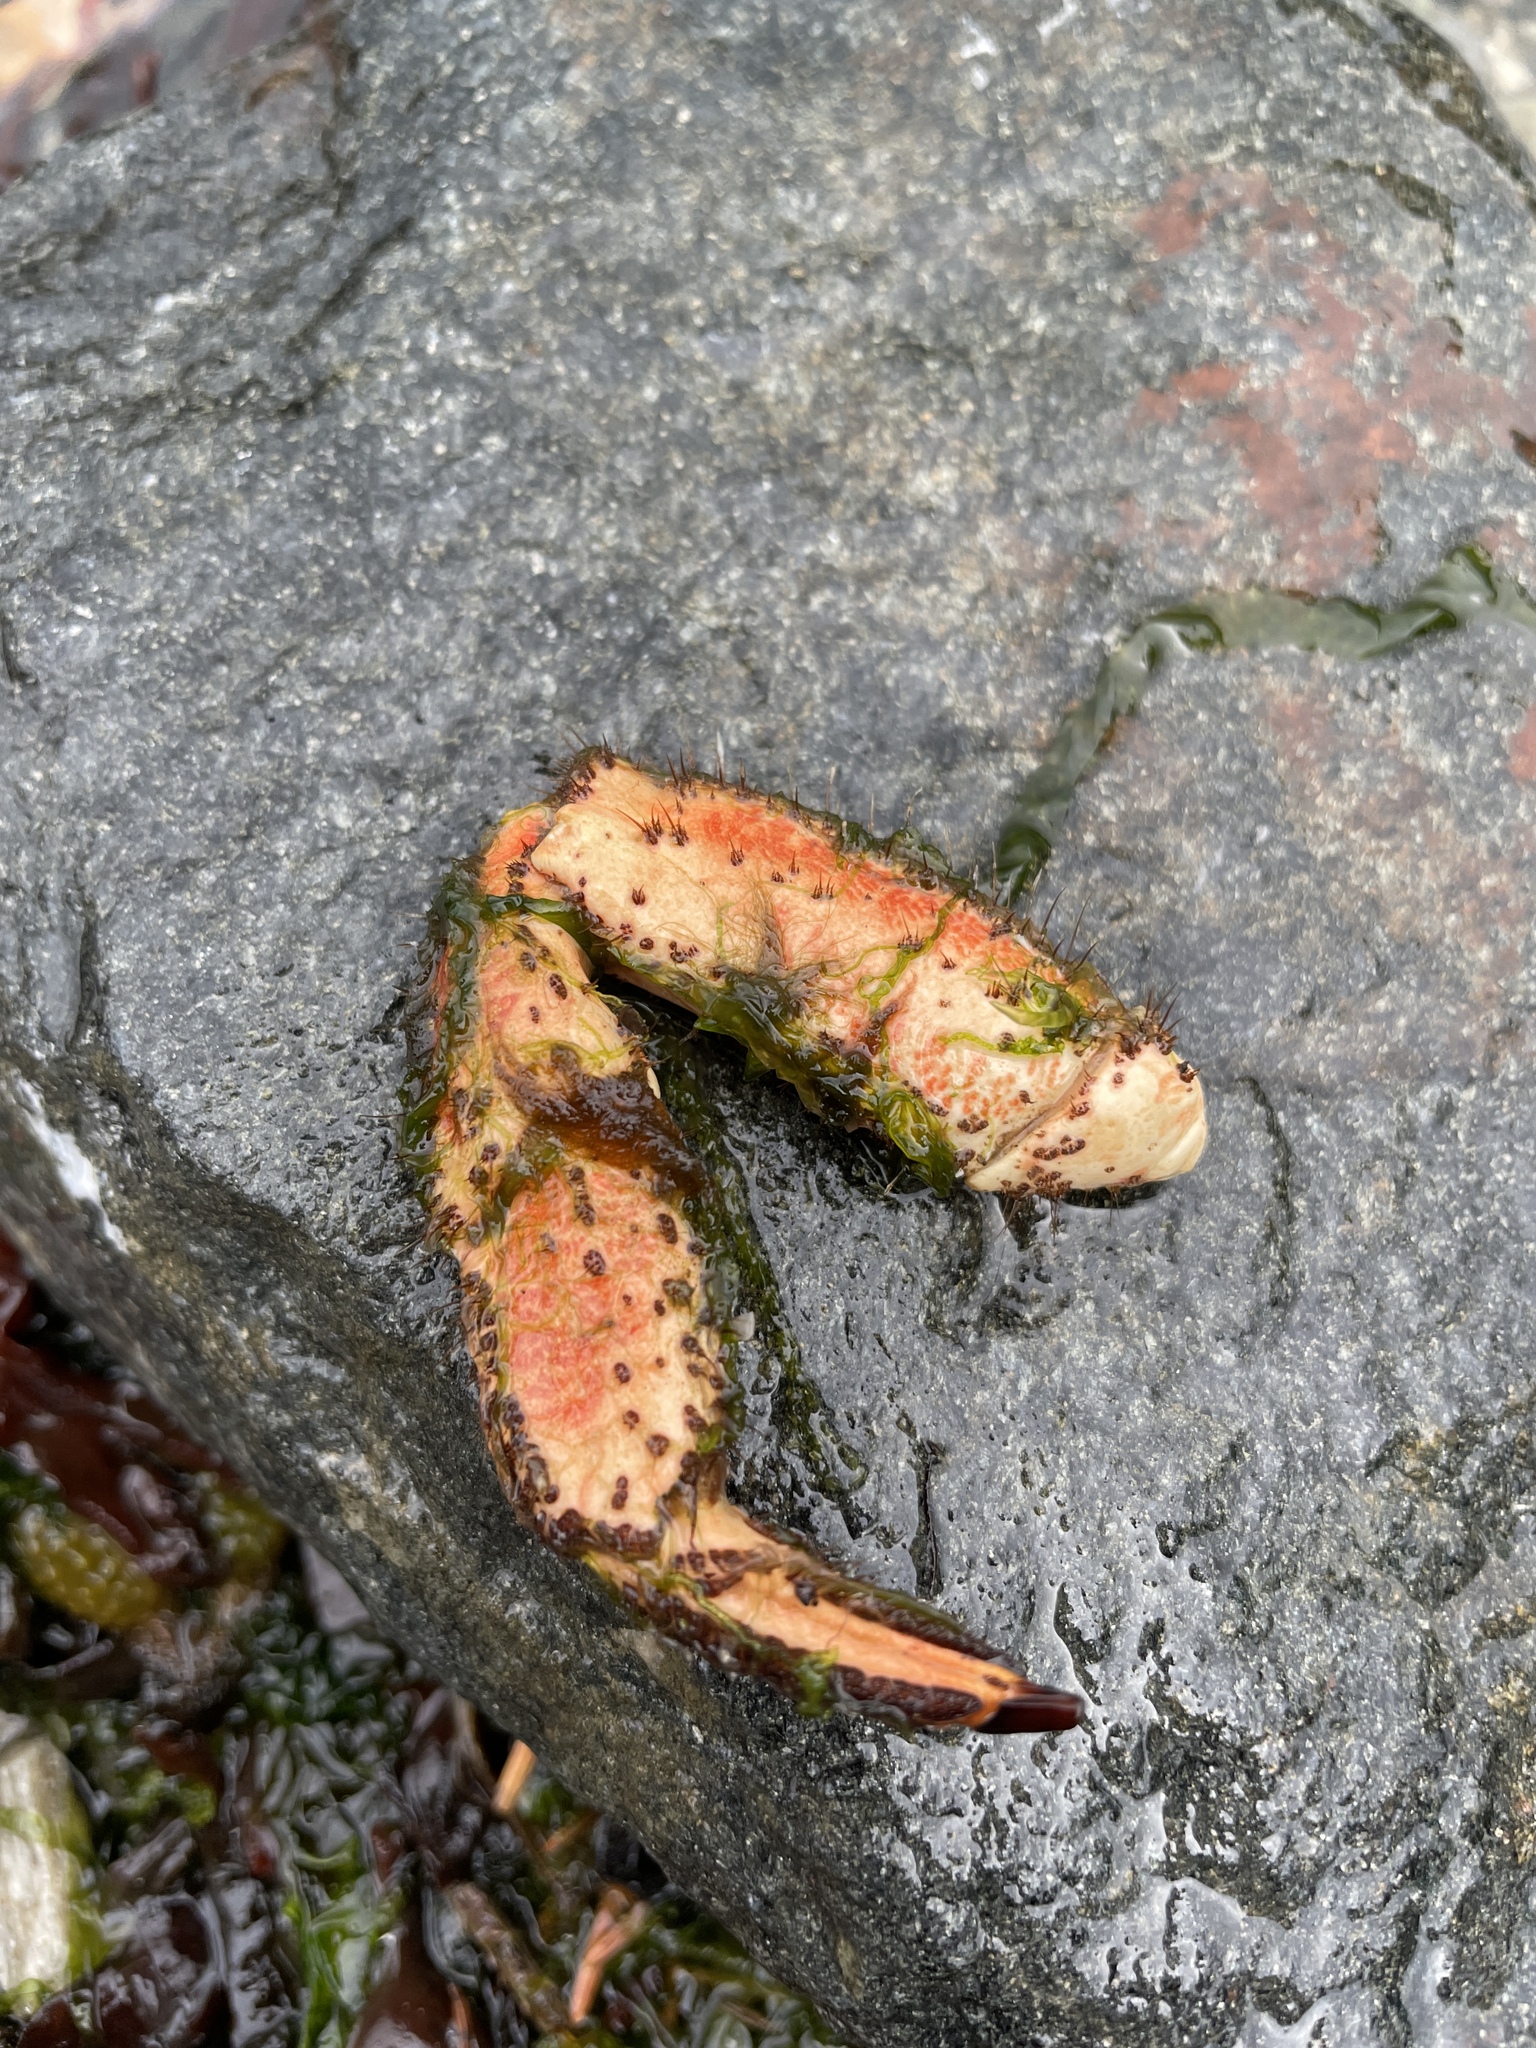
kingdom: Animalia
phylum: Arthropoda
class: Malacostraca
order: Decapoda
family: Cancridae
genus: Cancer
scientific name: Cancer pagurus
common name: Edible crab
